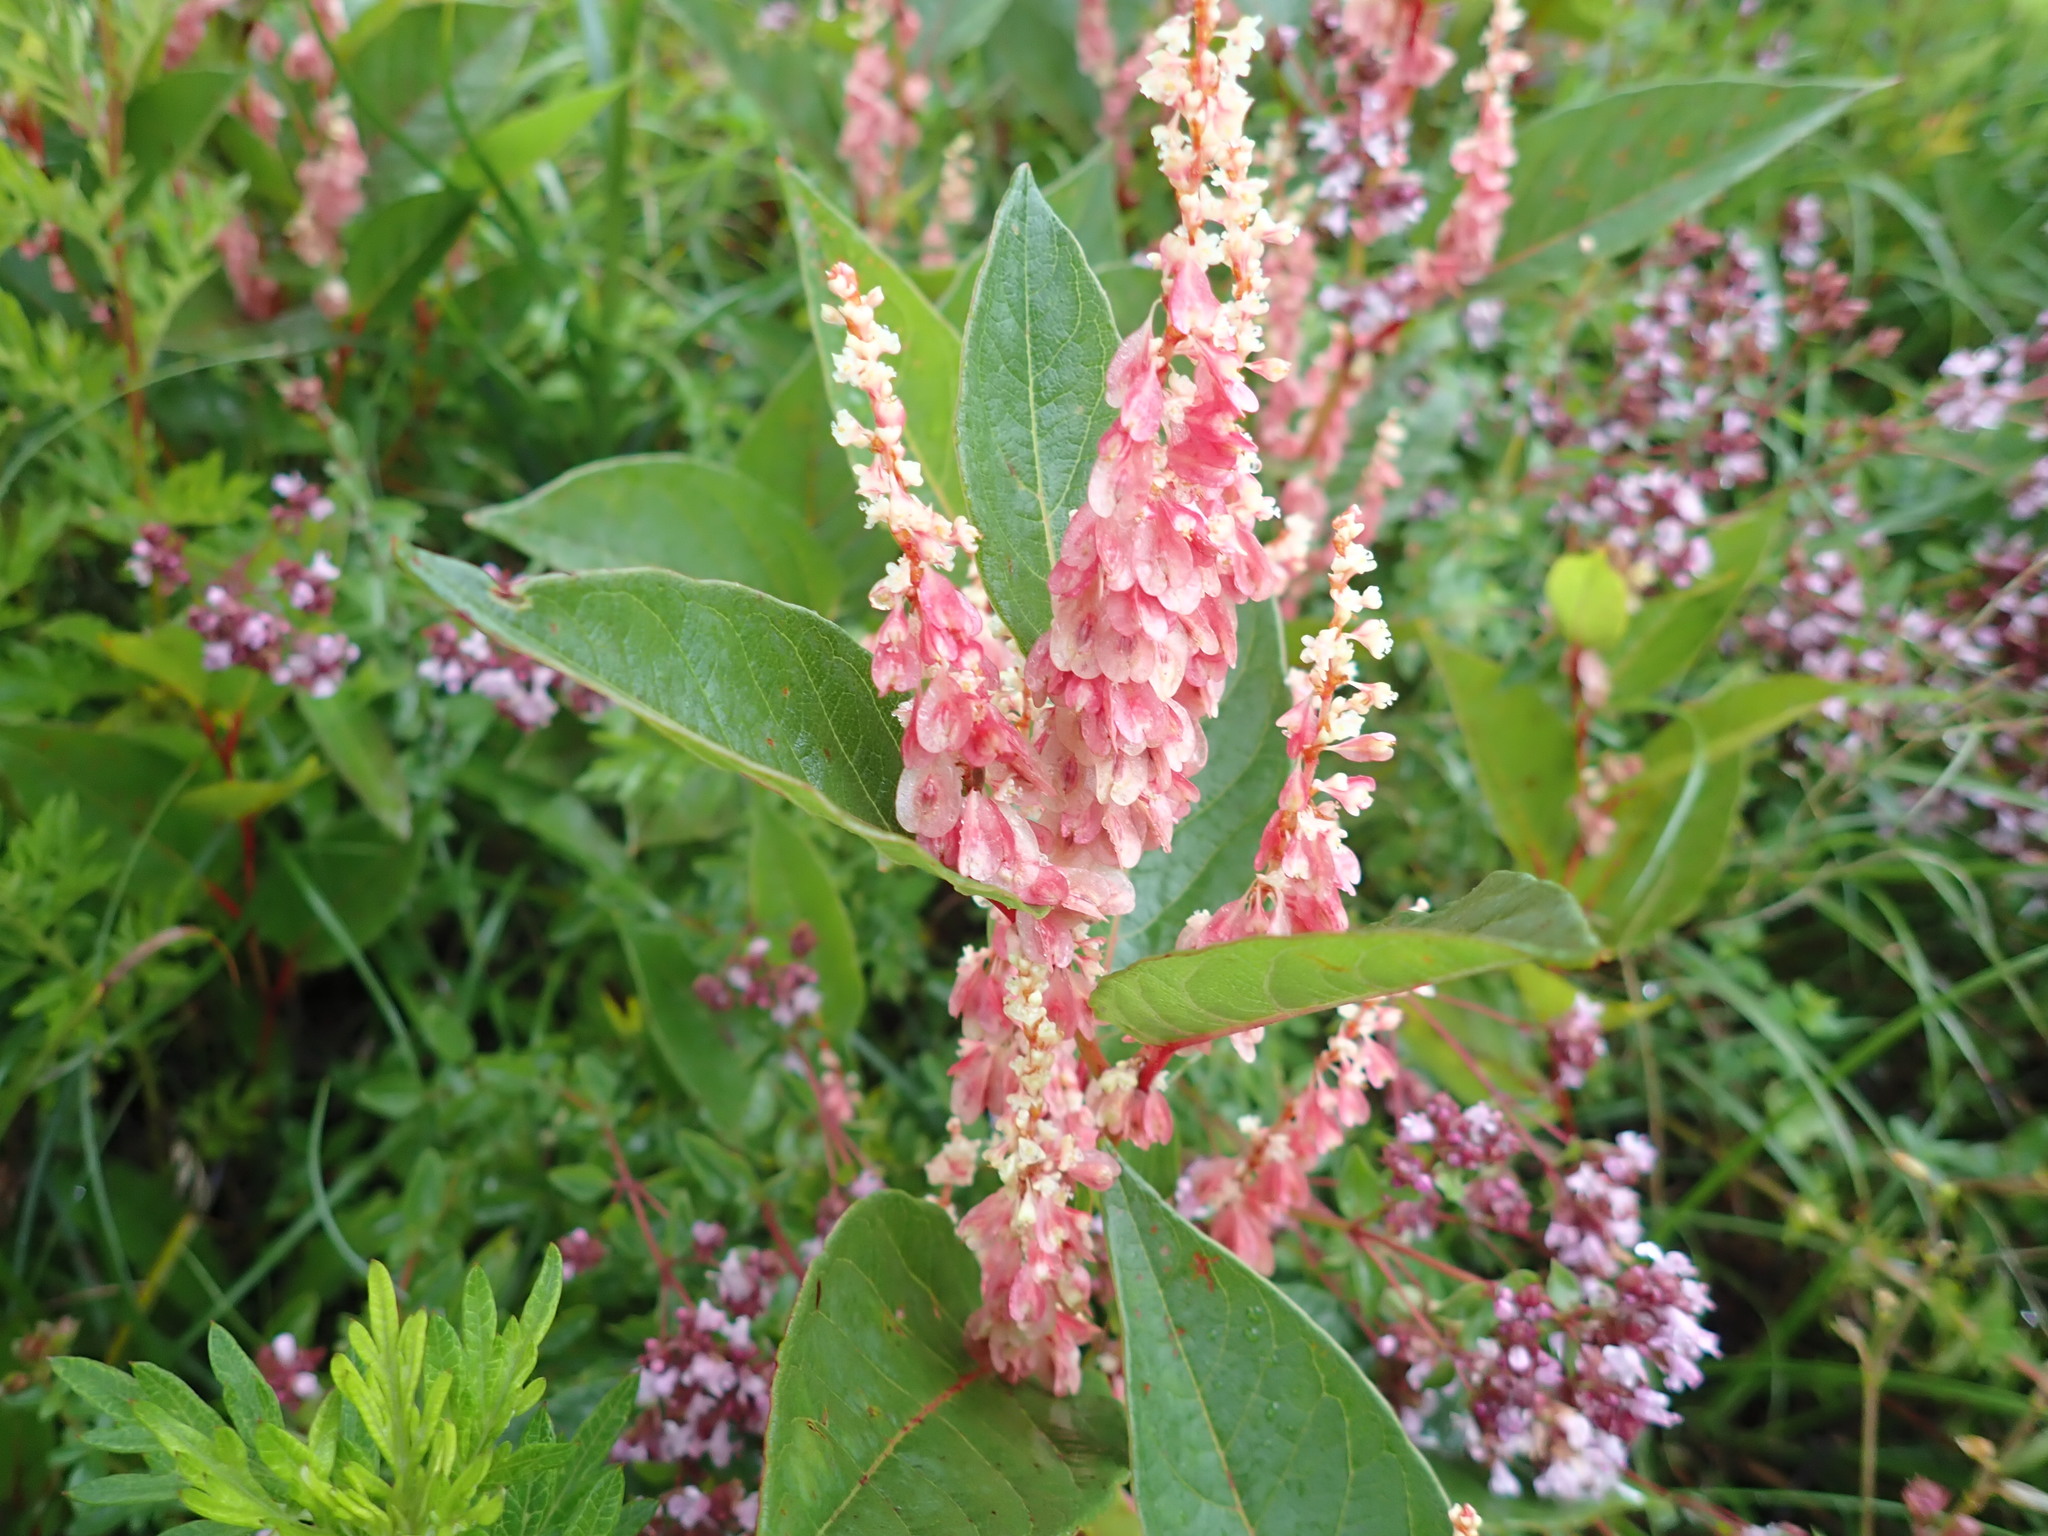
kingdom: Plantae
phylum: Tracheophyta
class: Magnoliopsida
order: Caryophyllales
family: Polygonaceae
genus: Reynoutria
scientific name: Reynoutria japonica
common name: Japanese knotweed
